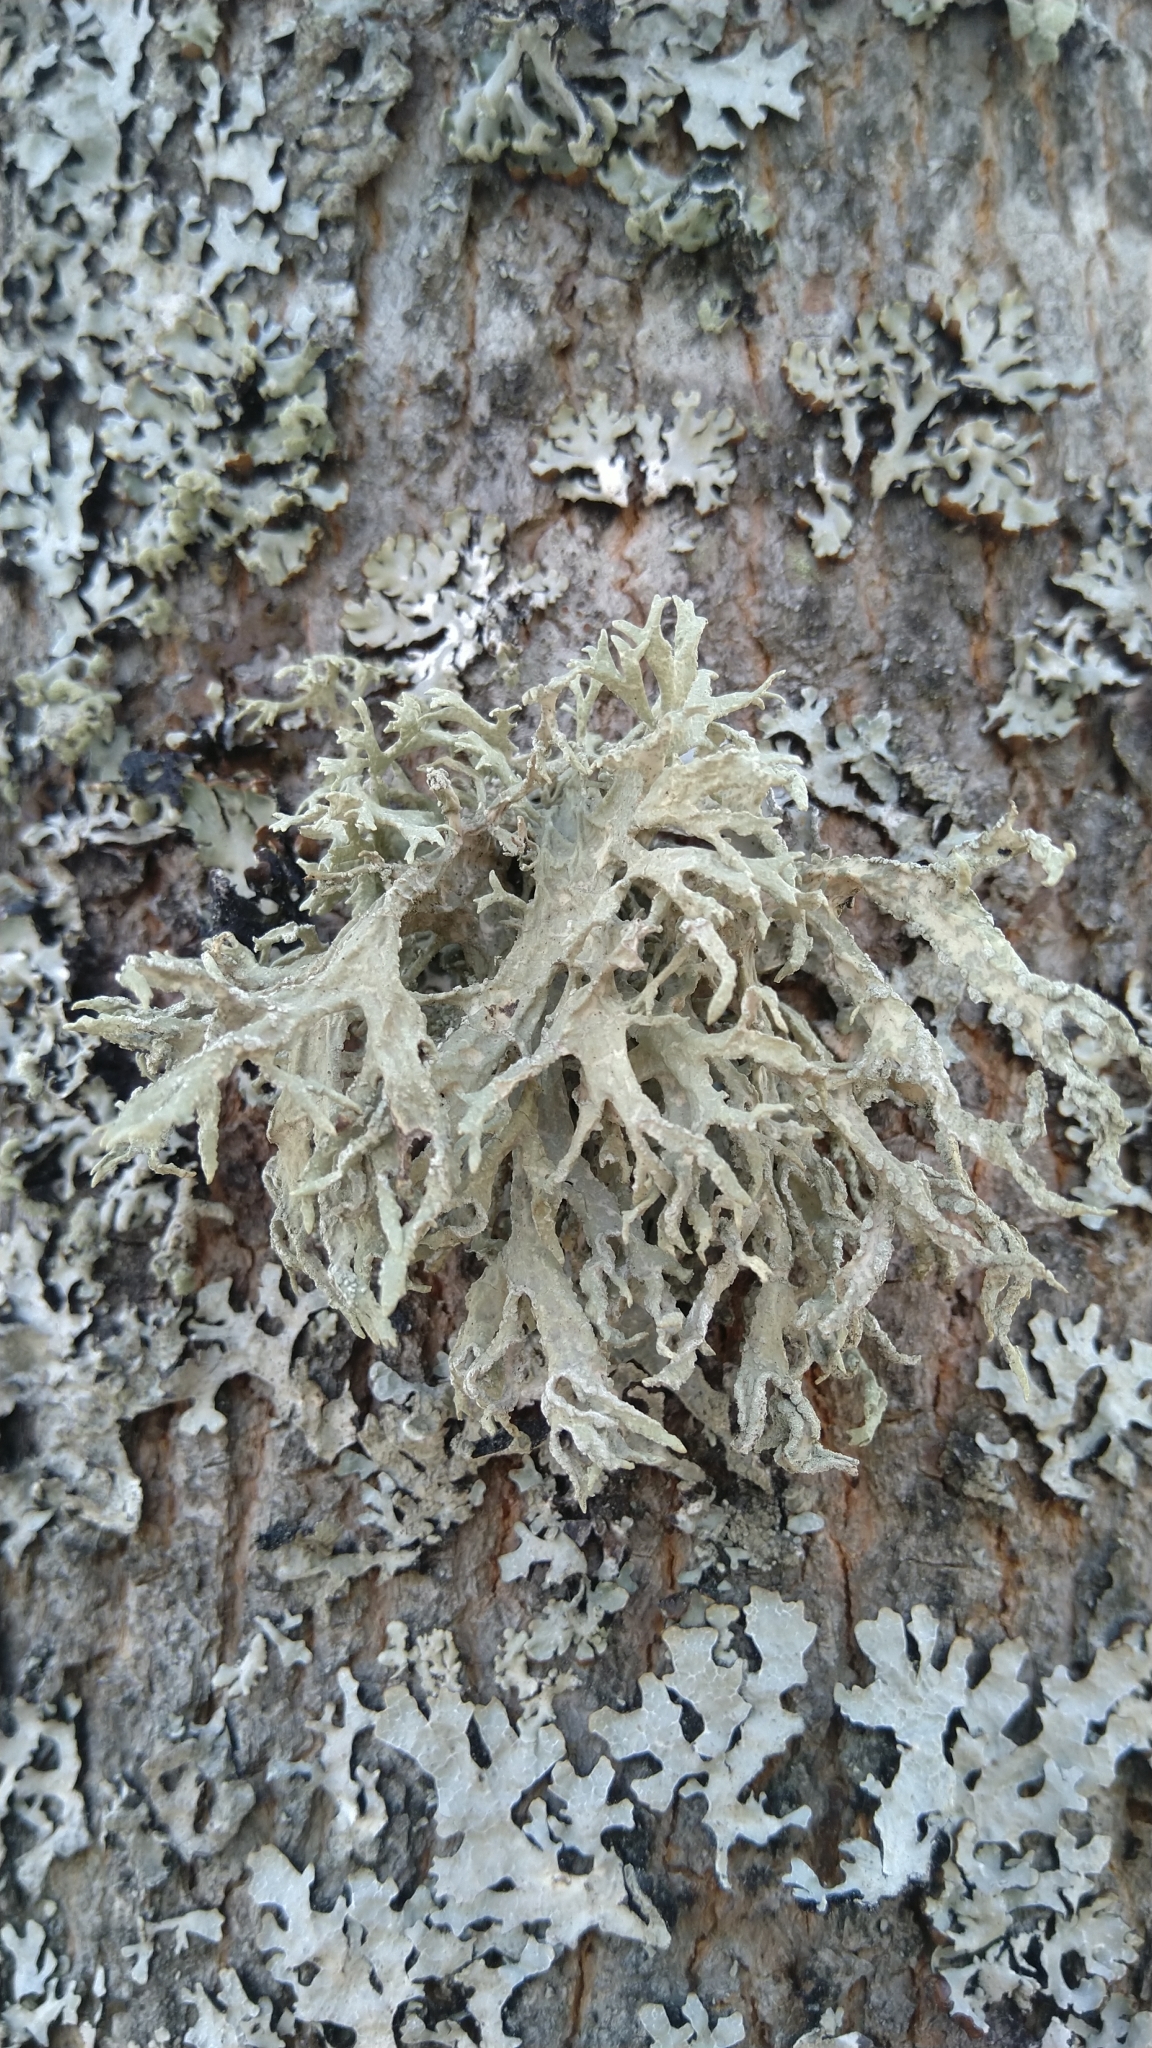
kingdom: Fungi
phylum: Ascomycota
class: Lecanoromycetes
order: Lecanorales
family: Parmeliaceae
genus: Evernia
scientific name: Evernia prunastri
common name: Oak moss
